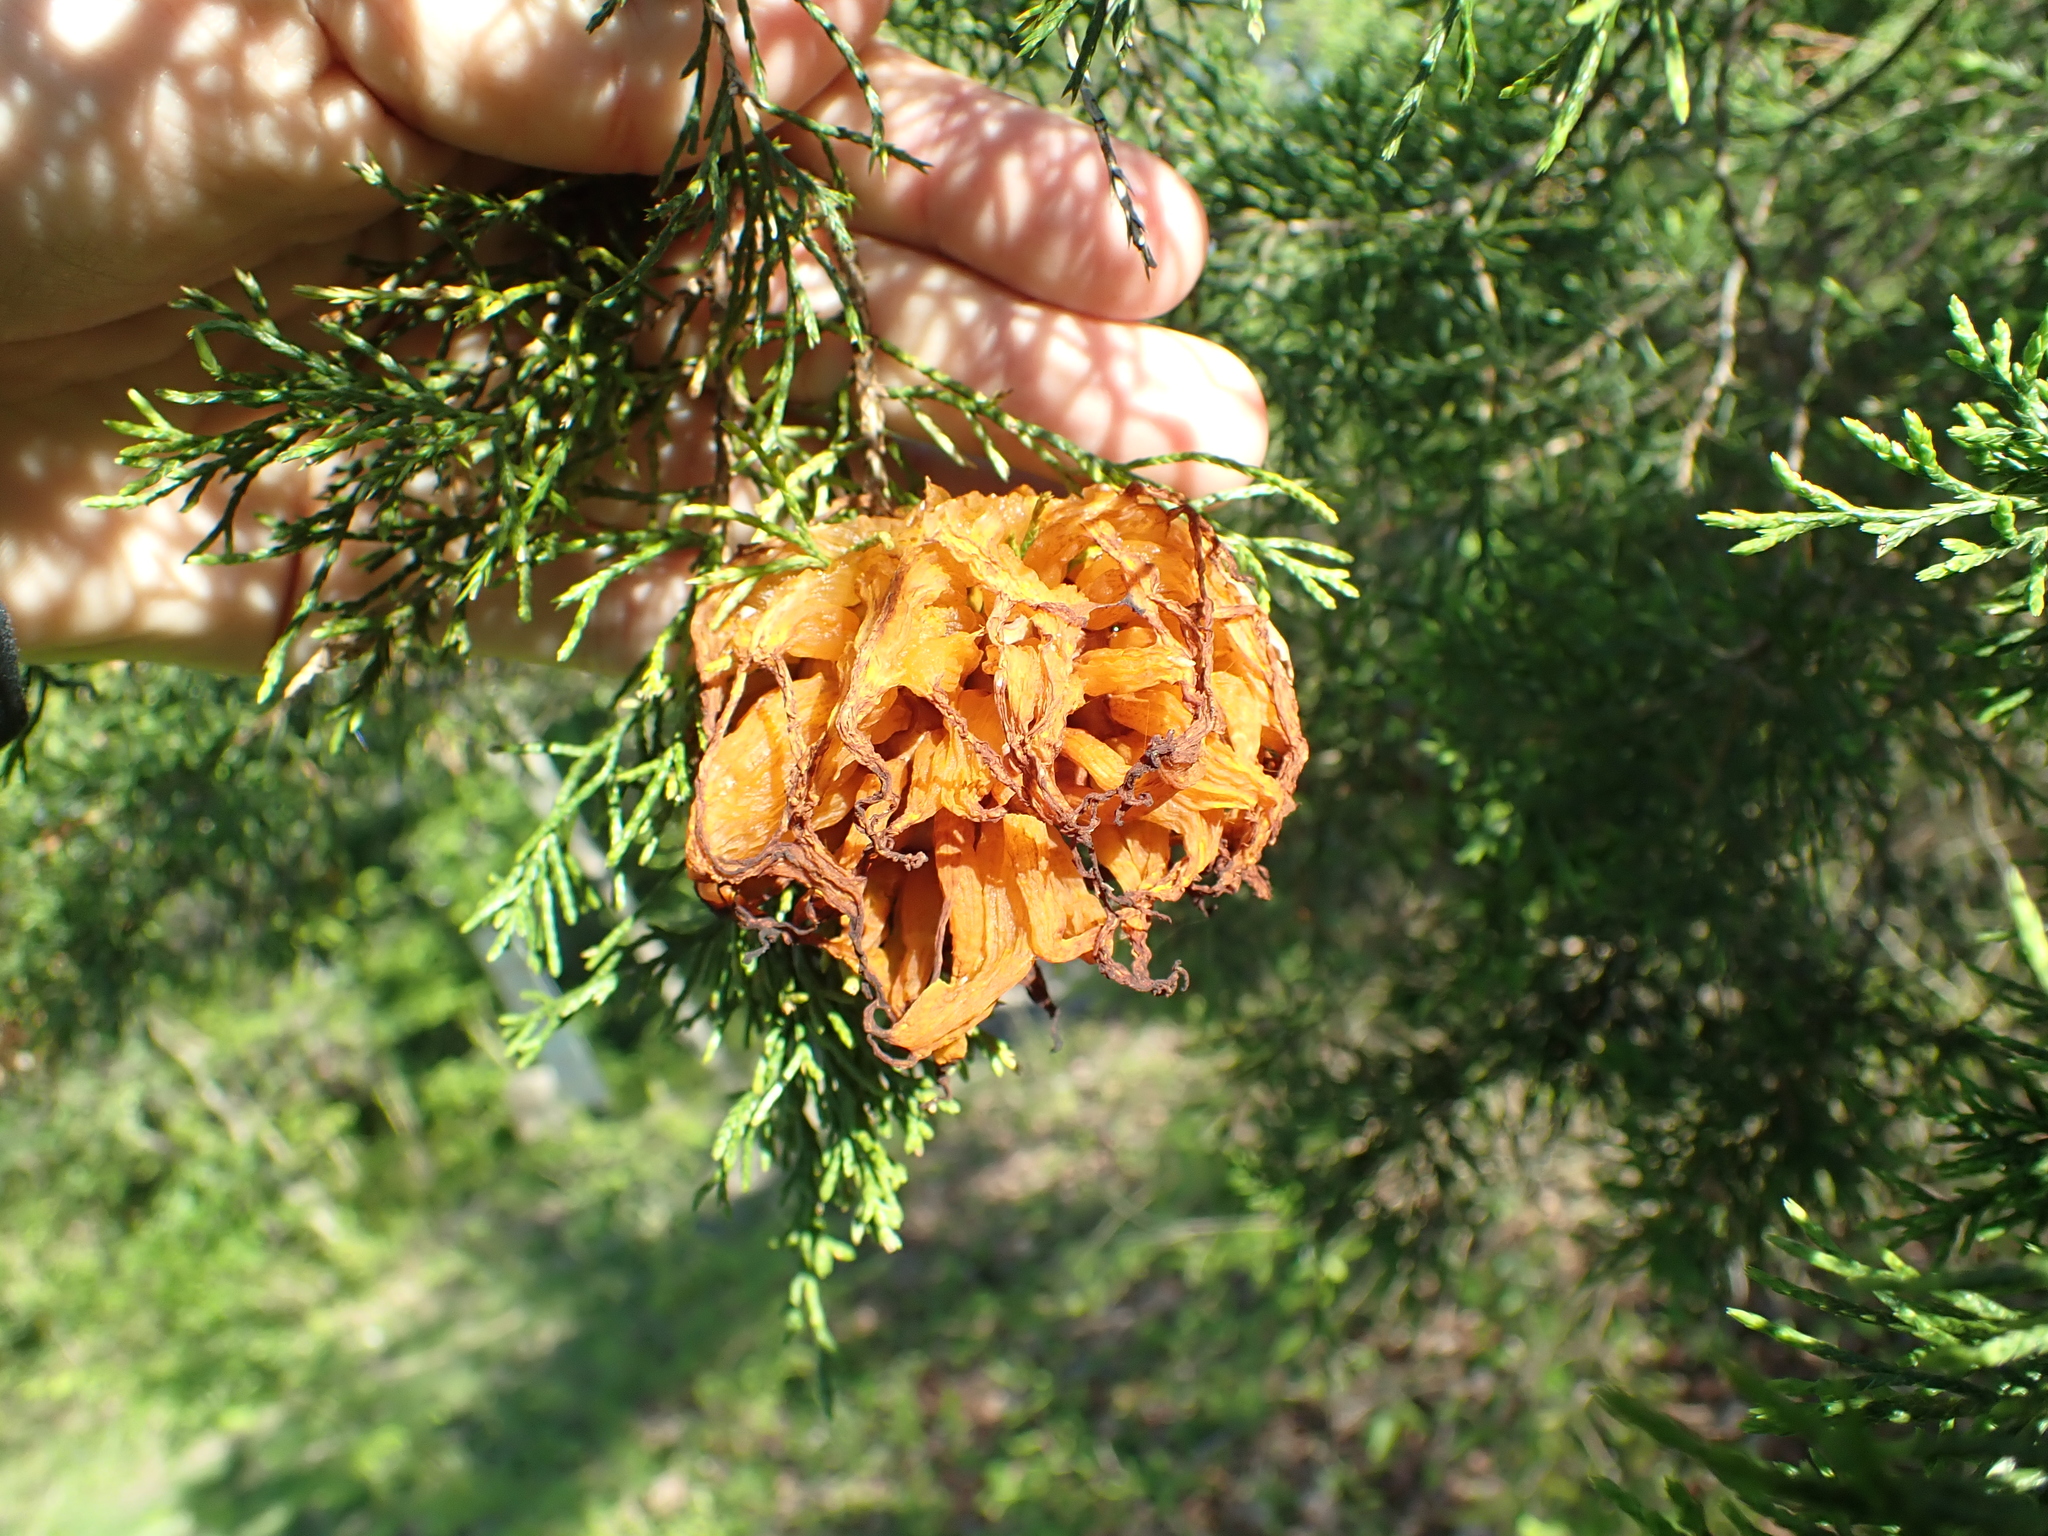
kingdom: Fungi
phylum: Basidiomycota
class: Pucciniomycetes
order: Pucciniales
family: Gymnosporangiaceae
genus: Gymnosporangium
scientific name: Gymnosporangium juniperi-virginianae
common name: Juniper-apple rust
